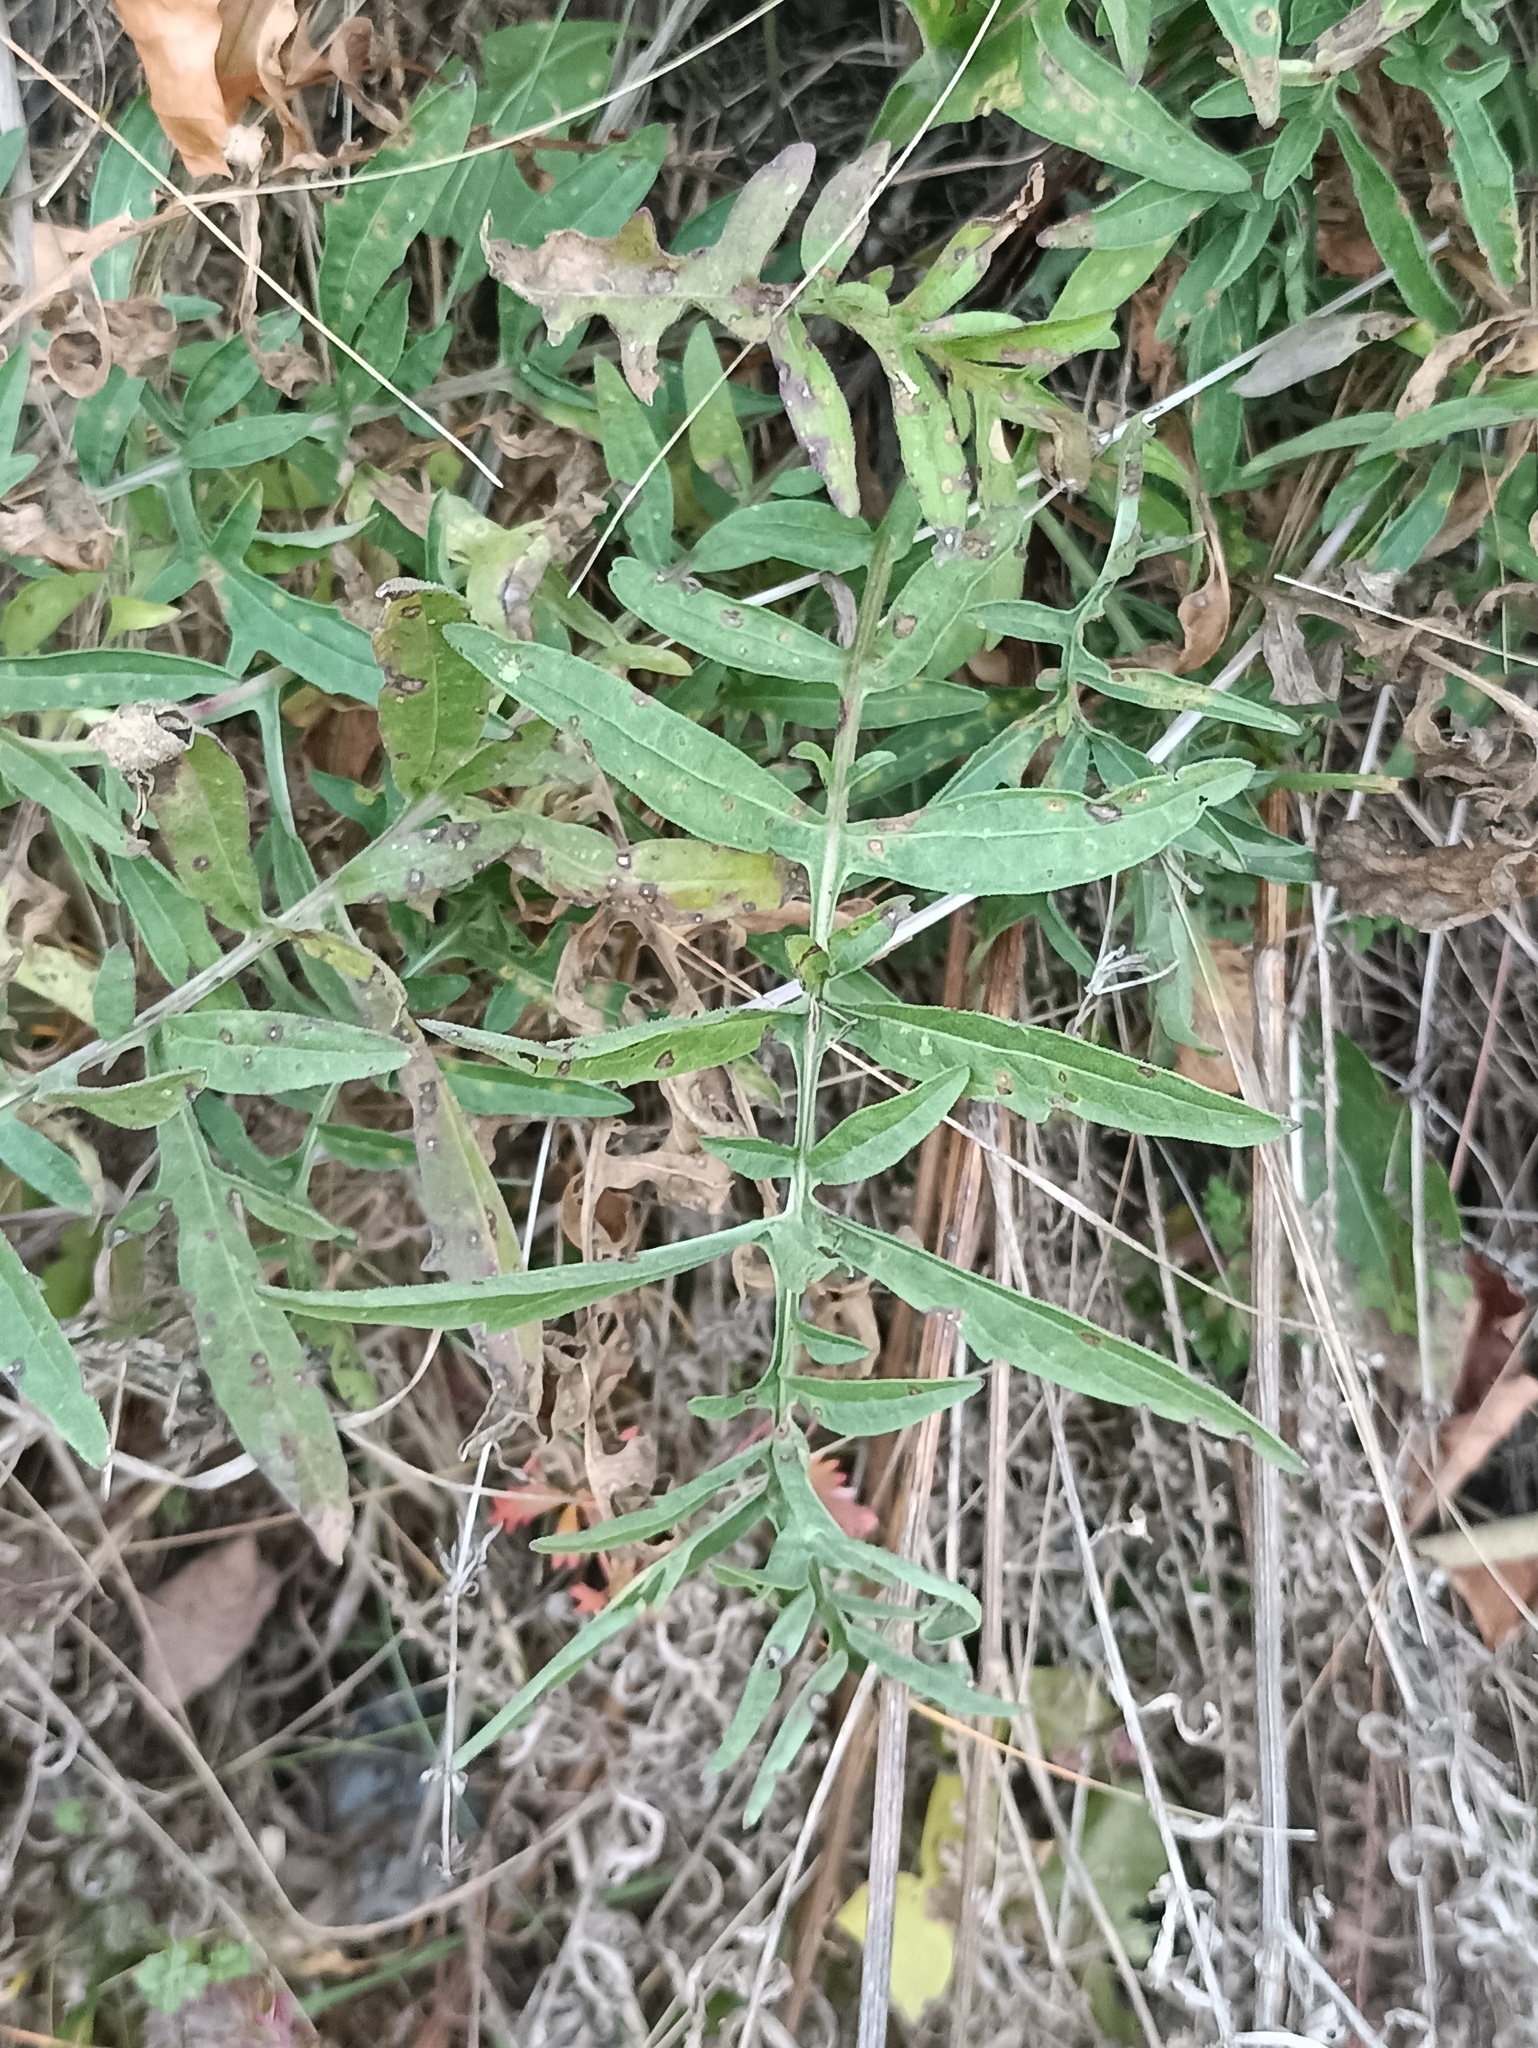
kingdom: Plantae
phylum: Tracheophyta
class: Magnoliopsida
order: Asterales
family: Asteraceae
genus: Centaurea
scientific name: Centaurea scabiosa
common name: Greater knapweed
